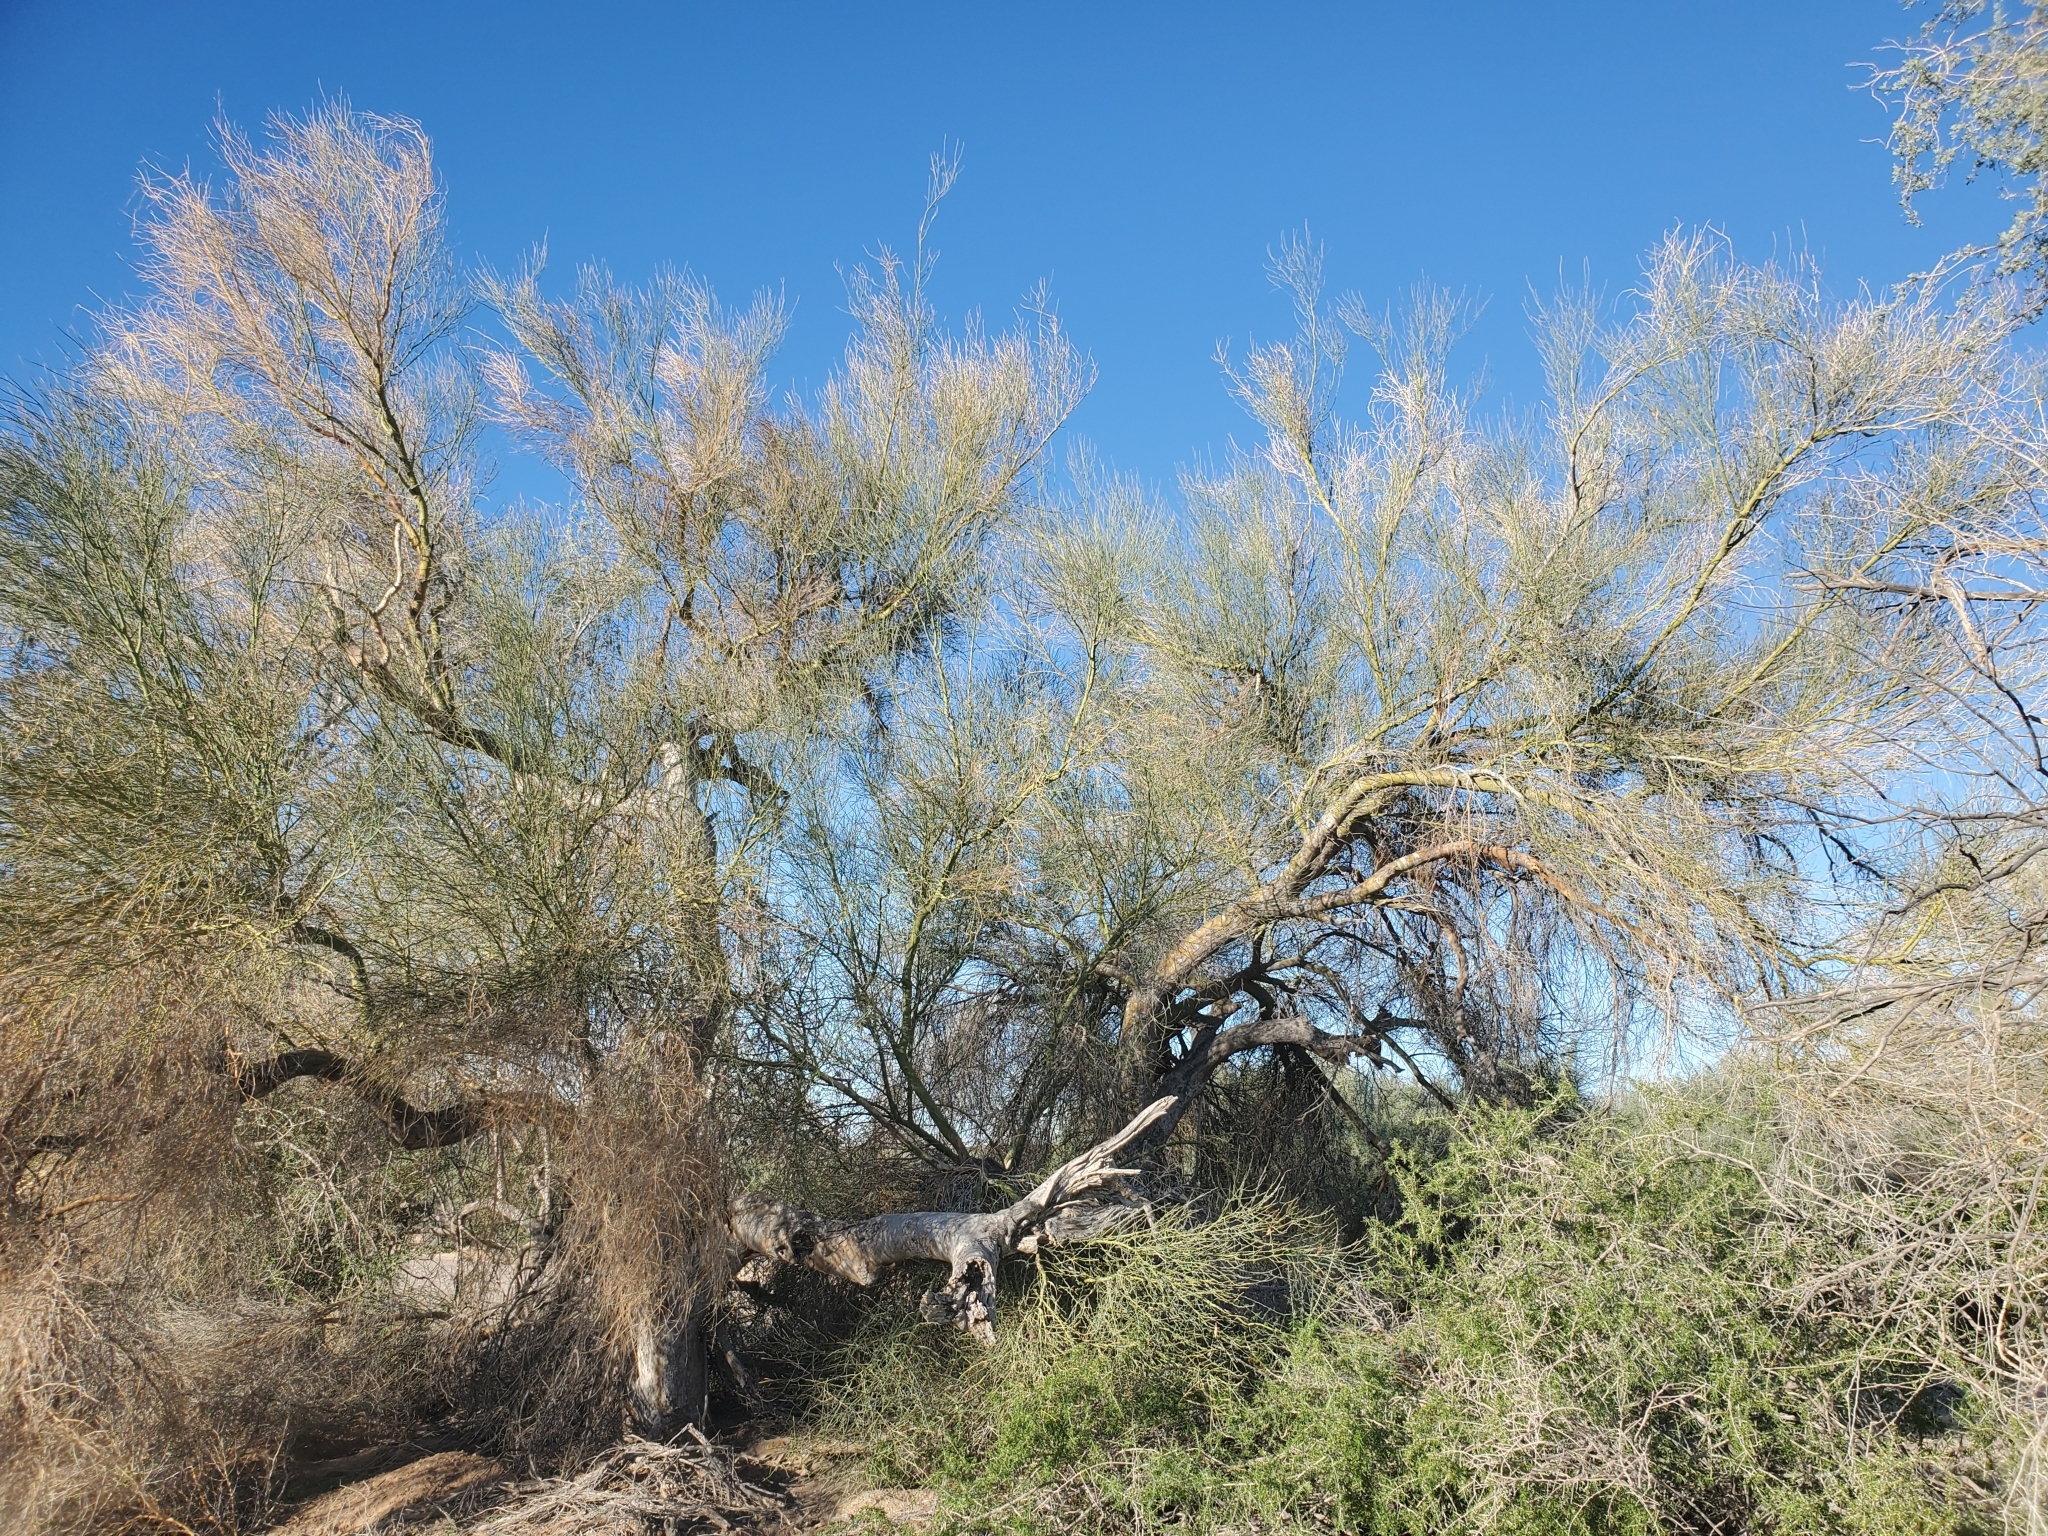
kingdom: Plantae
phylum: Tracheophyta
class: Magnoliopsida
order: Fabales
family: Fabaceae
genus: Parkinsonia
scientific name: Parkinsonia florida
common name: Blue paloverde
